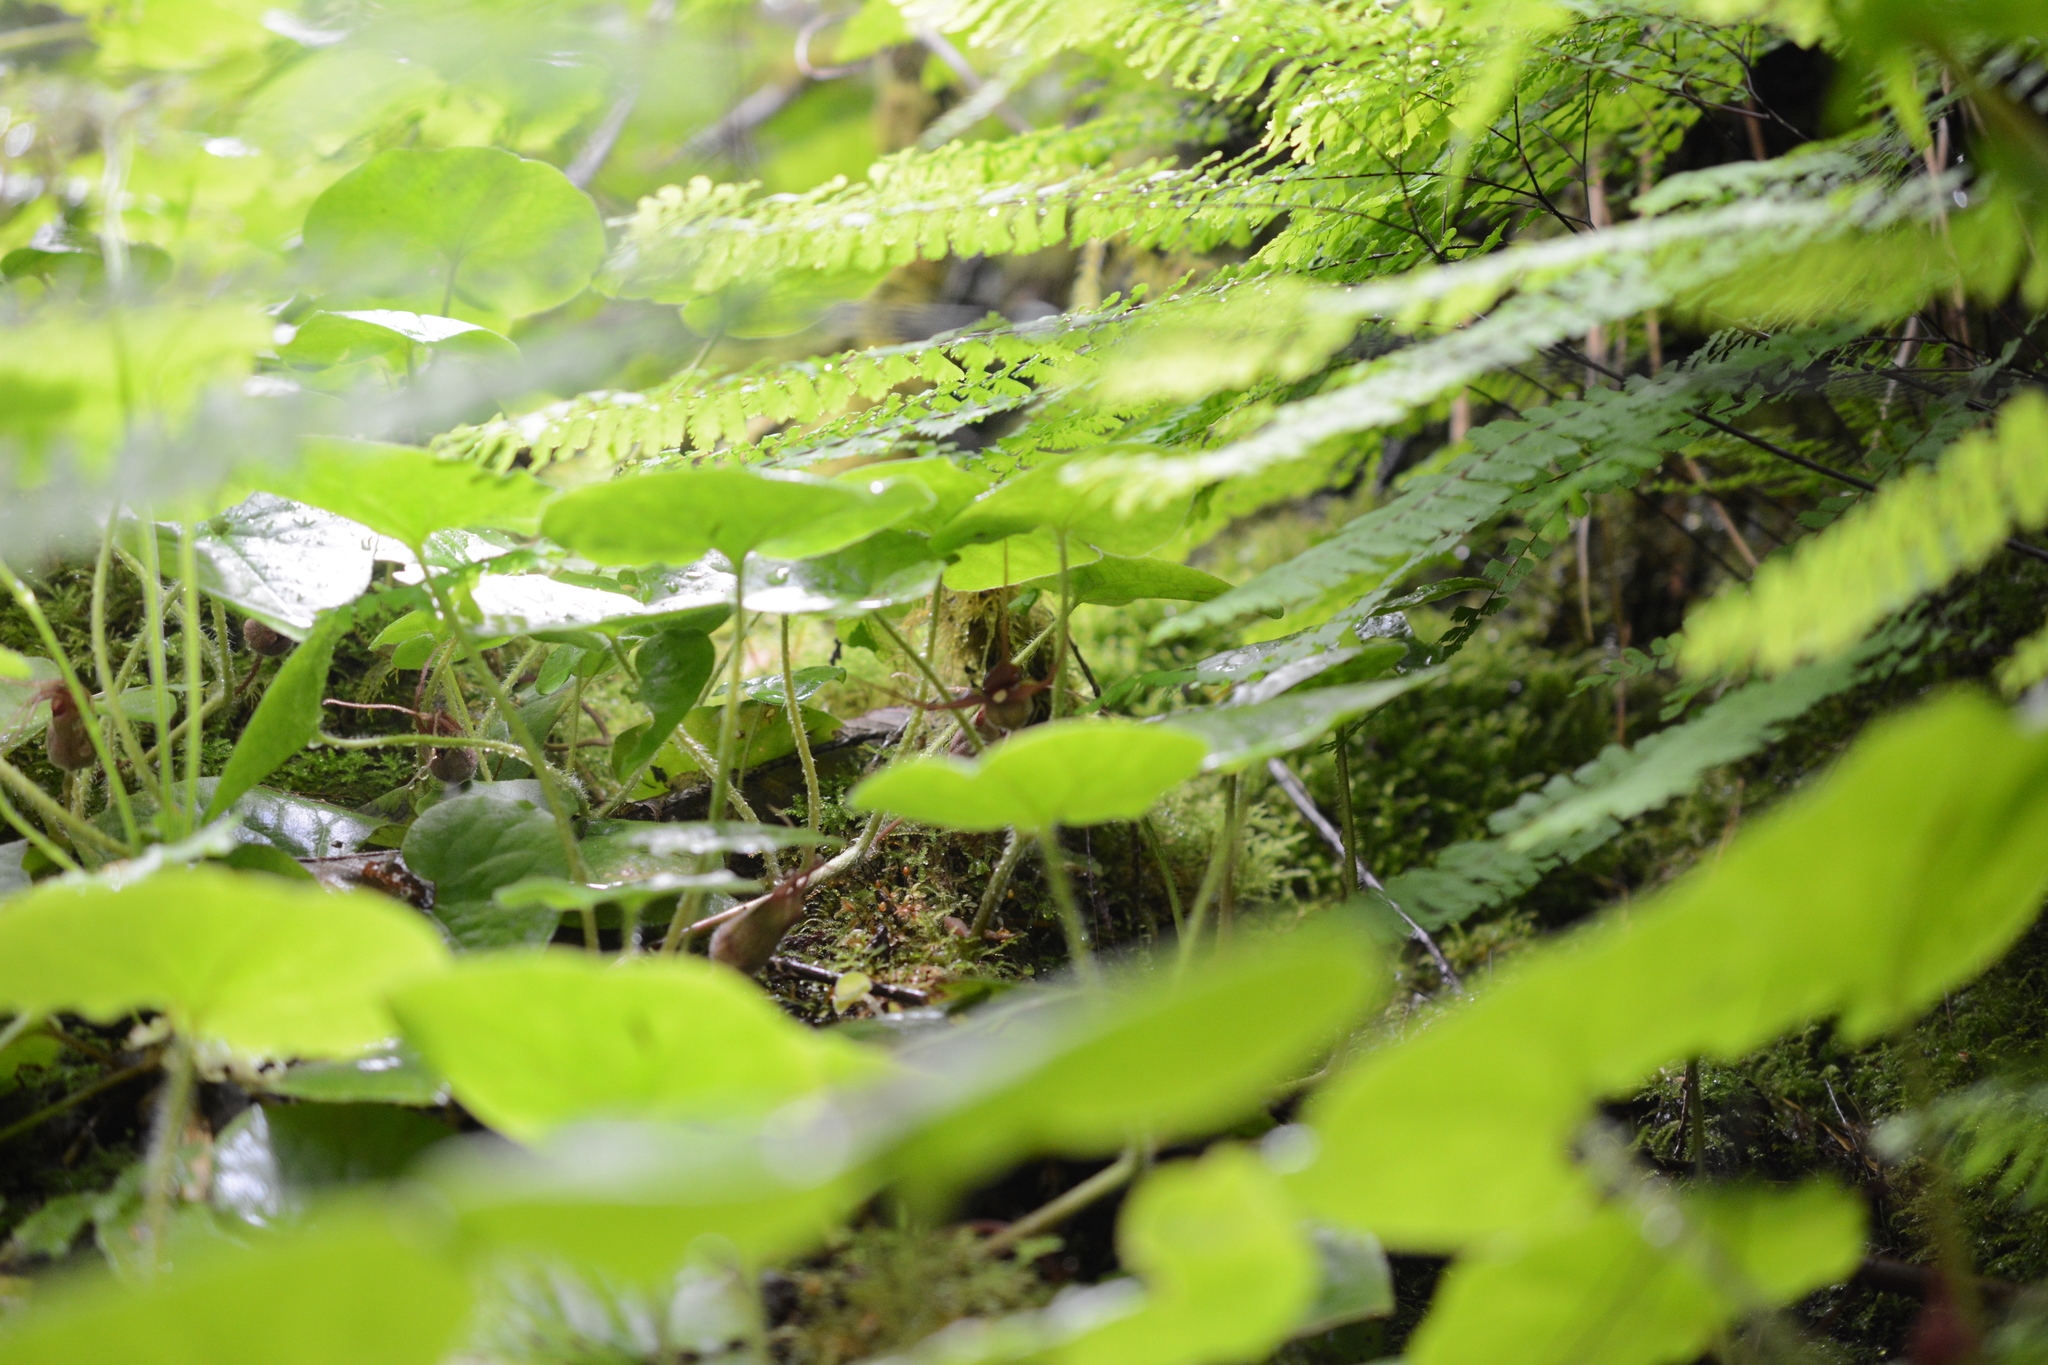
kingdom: Plantae
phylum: Tracheophyta
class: Magnoliopsida
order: Piperales
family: Aristolochiaceae
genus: Asarum
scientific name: Asarum caudatum
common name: Wild ginger
